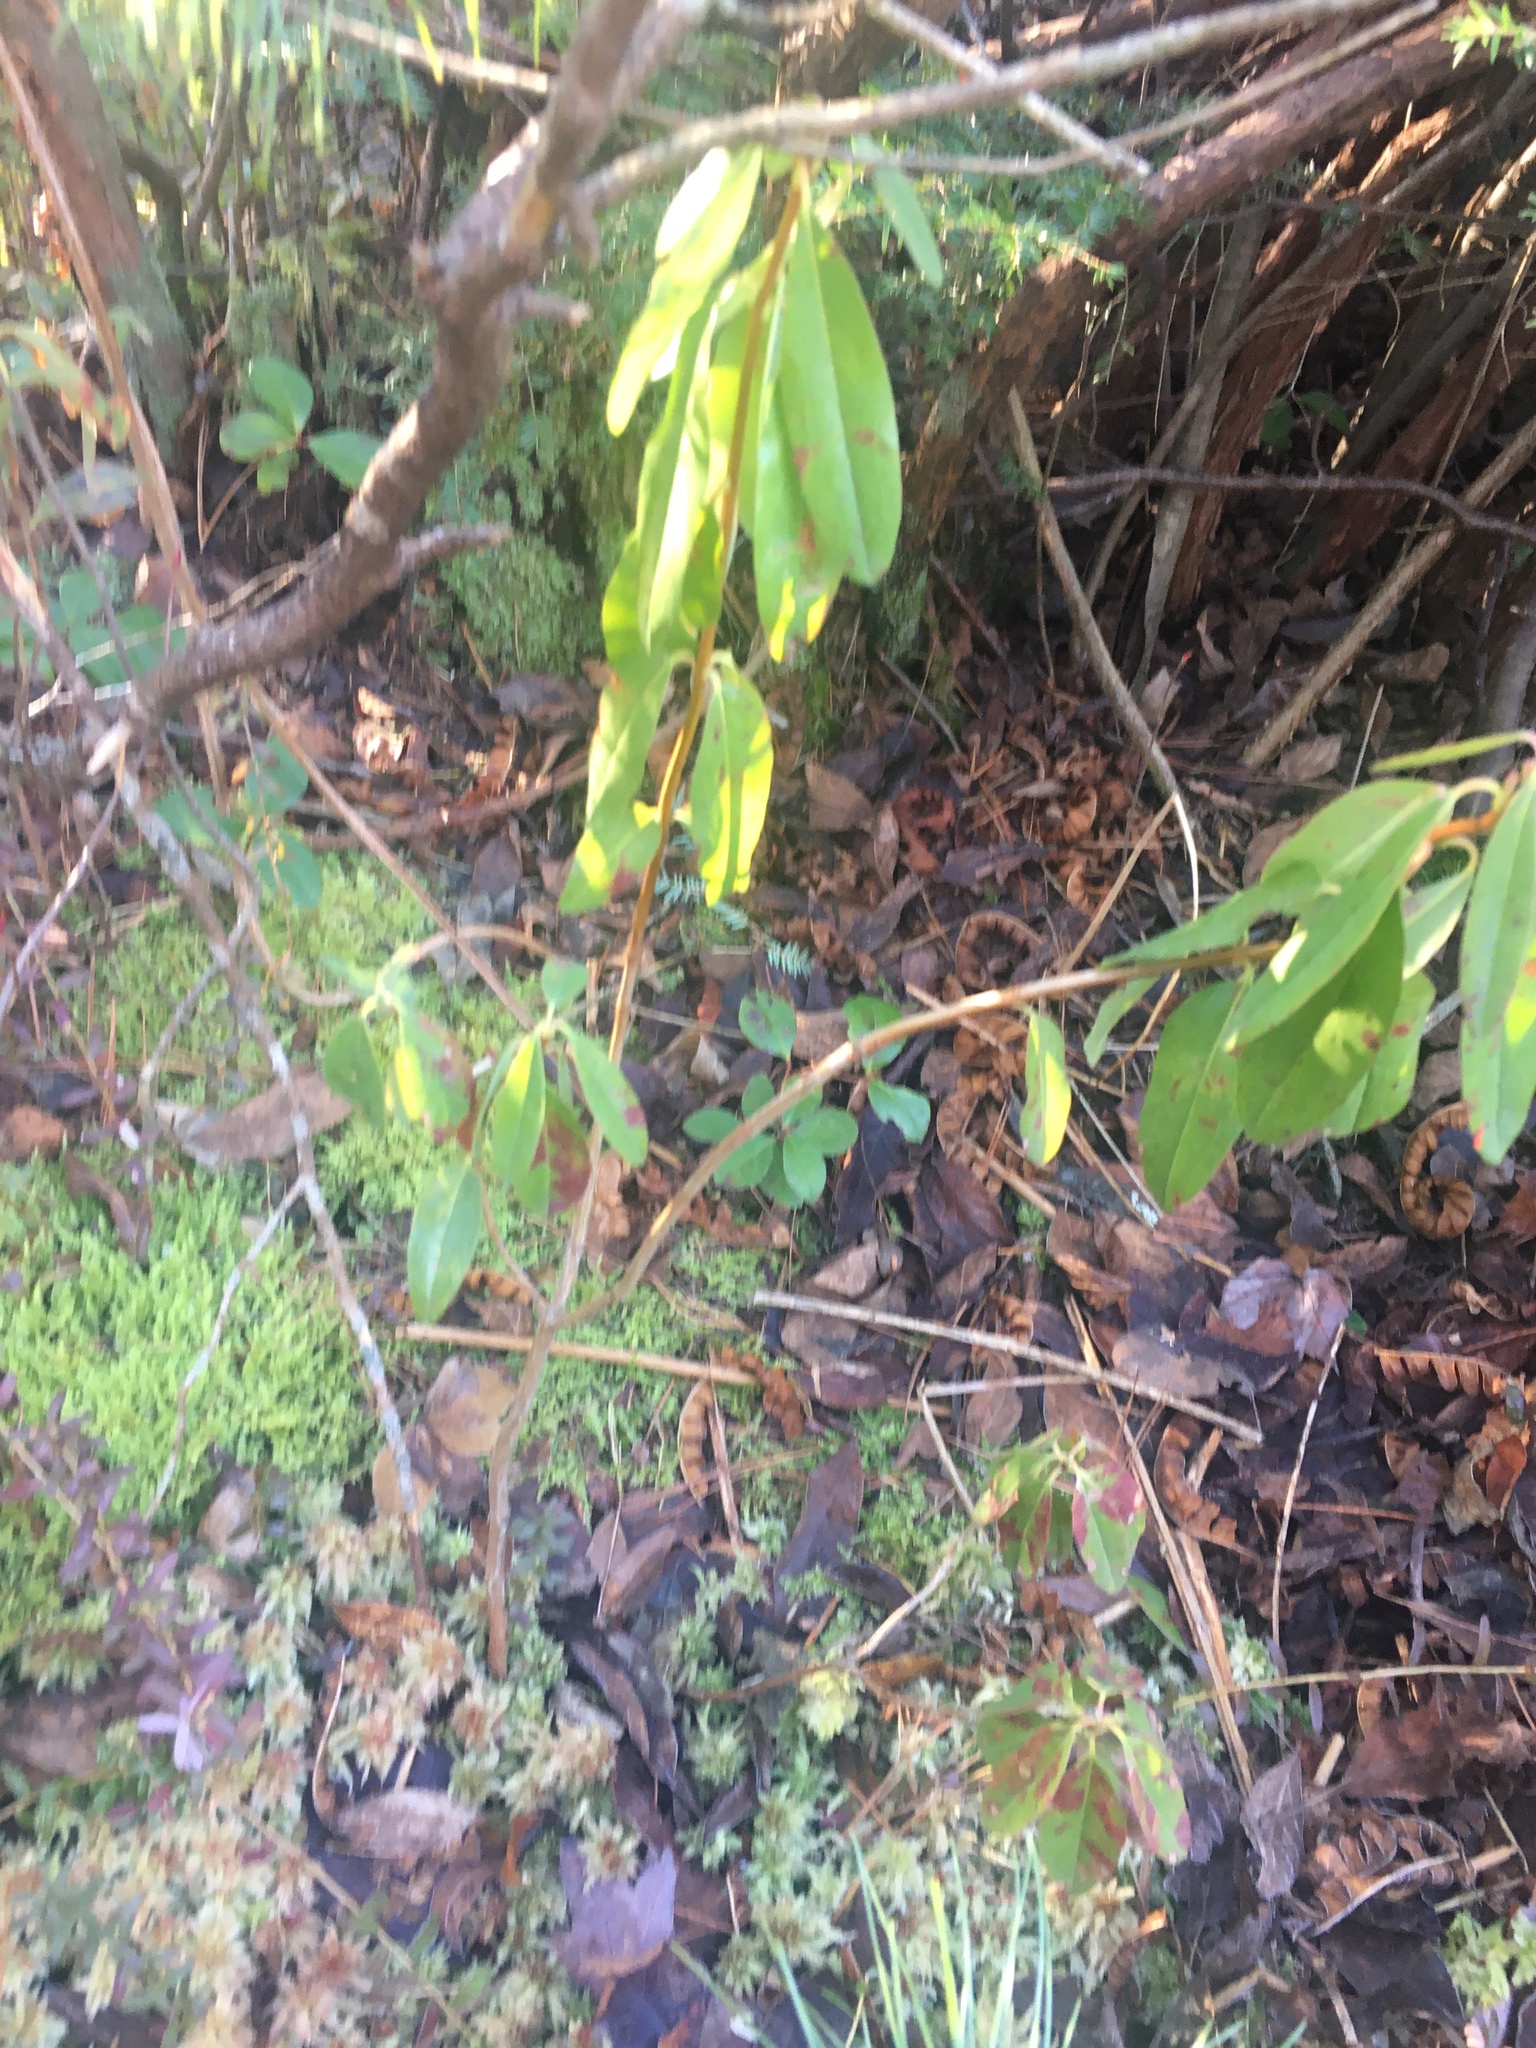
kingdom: Plantae
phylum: Tracheophyta
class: Magnoliopsida
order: Ericales
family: Ericaceae
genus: Kalmia
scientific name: Kalmia angustifolia
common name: Sheep-laurel
